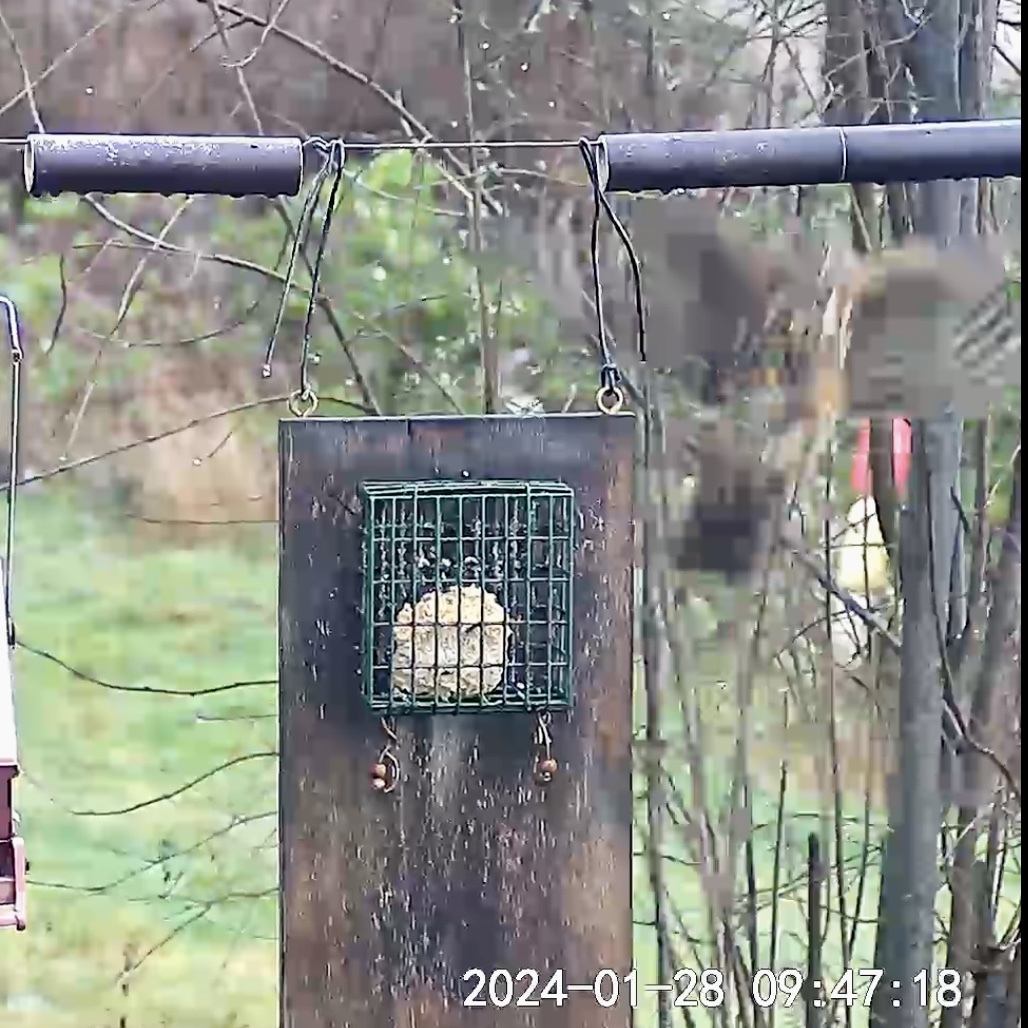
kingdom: Animalia
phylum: Chordata
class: Aves
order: Accipitriformes
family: Accipitridae
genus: Accipiter
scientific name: Accipiter cooperii
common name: Cooper's hawk
